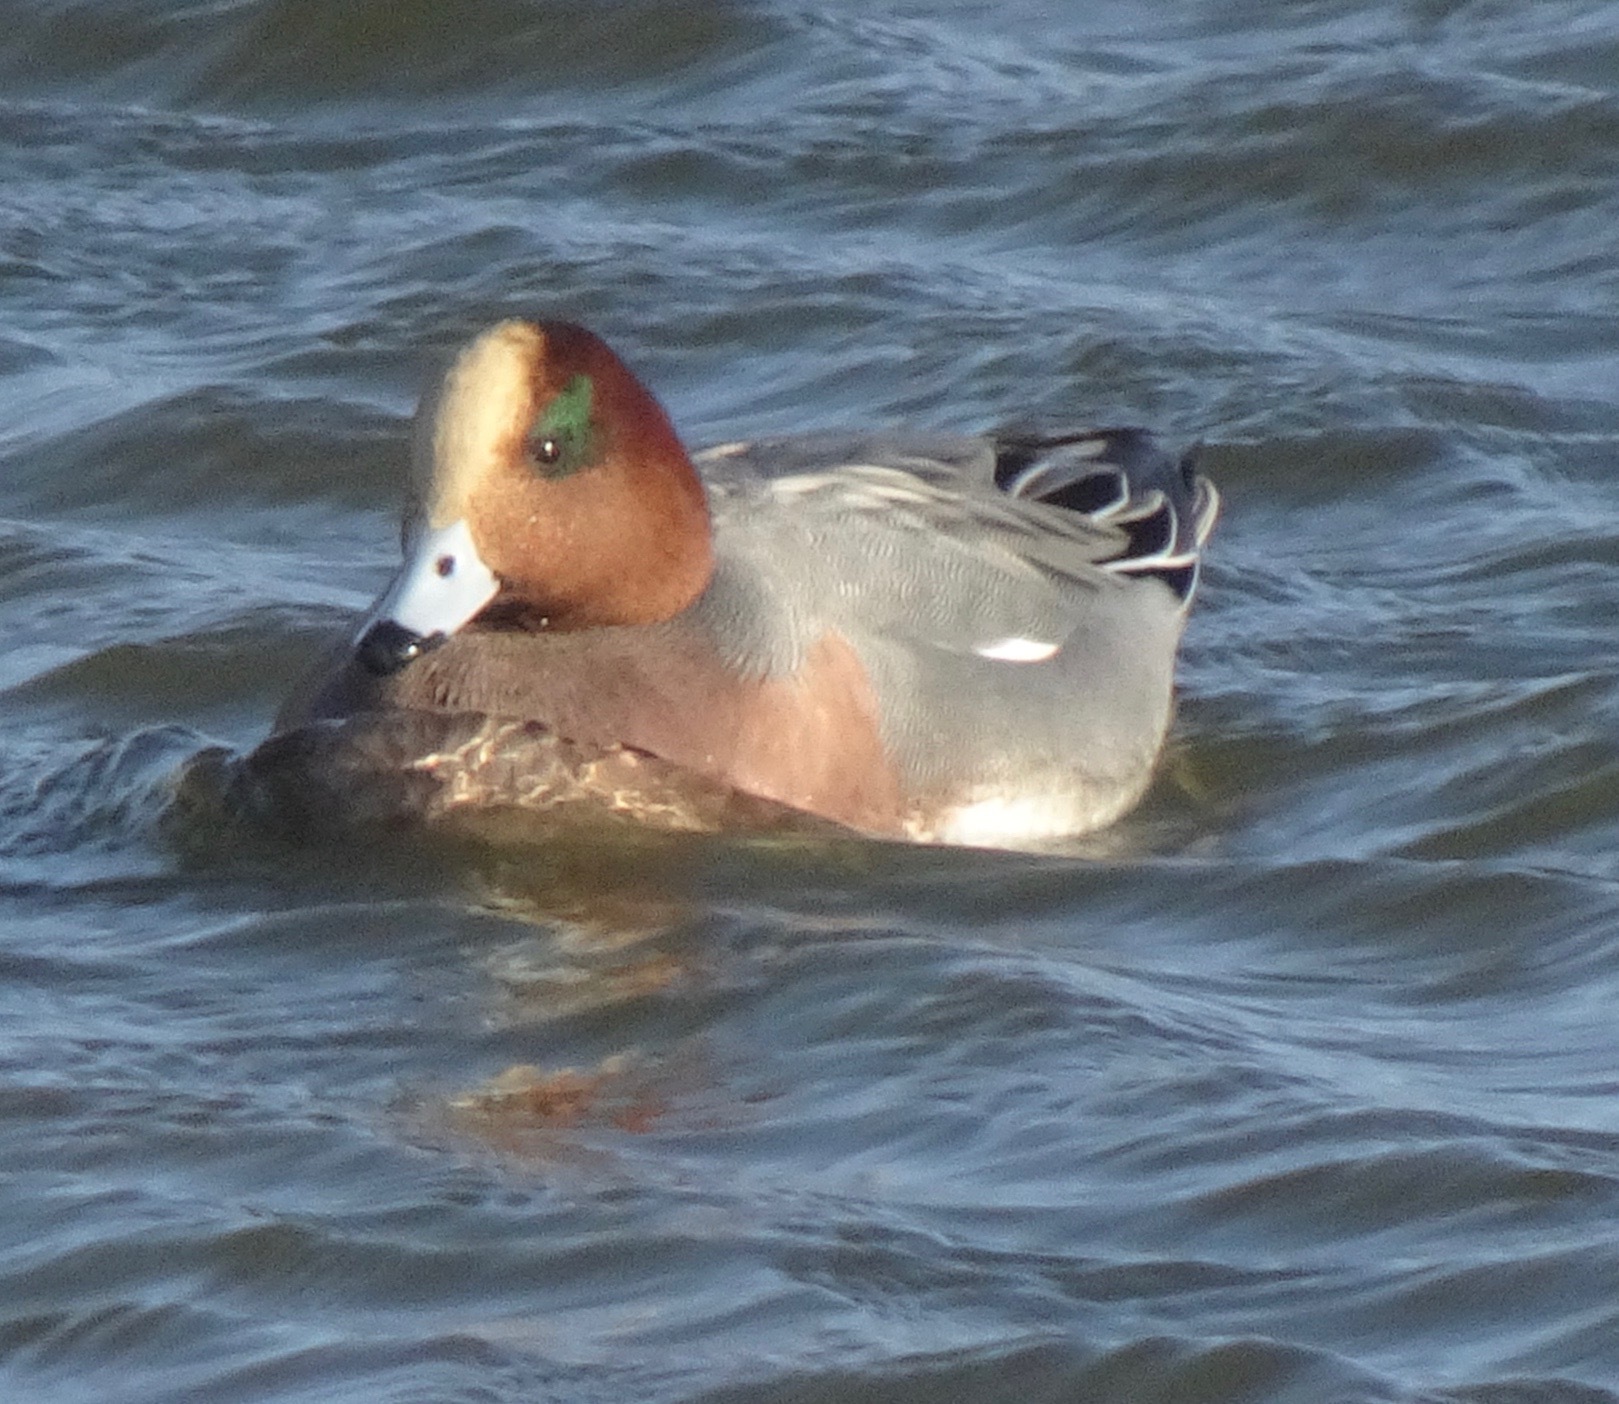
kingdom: Animalia
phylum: Chordata
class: Aves
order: Anseriformes
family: Anatidae
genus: Mareca
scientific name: Mareca penelope
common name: Eurasian wigeon
